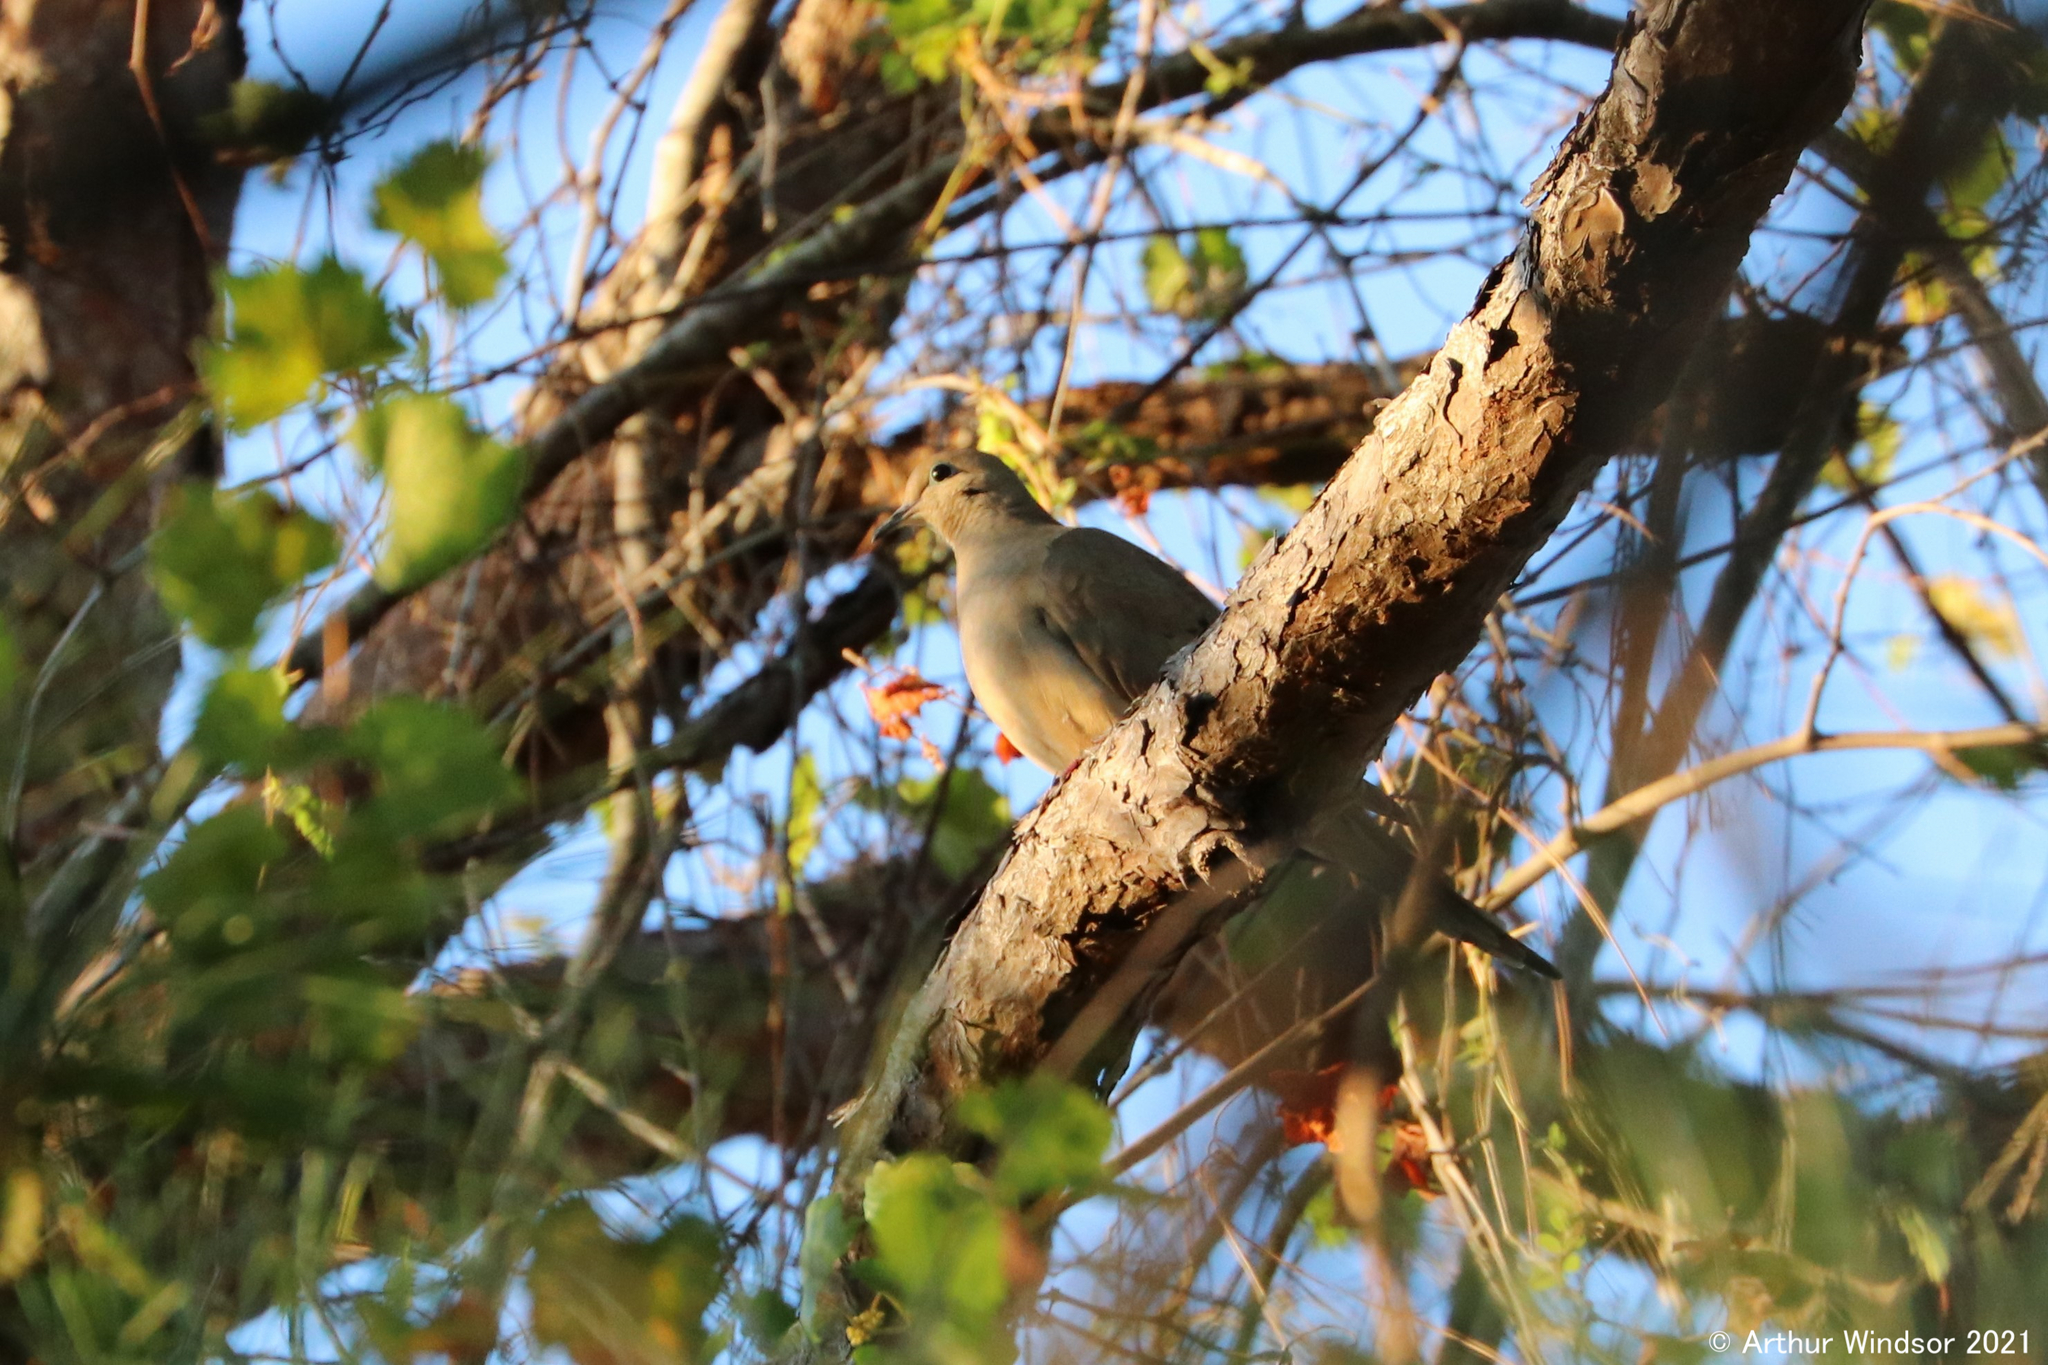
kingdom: Animalia
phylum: Chordata
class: Aves
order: Columbiformes
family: Columbidae
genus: Zenaida
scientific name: Zenaida macroura
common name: Mourning dove
